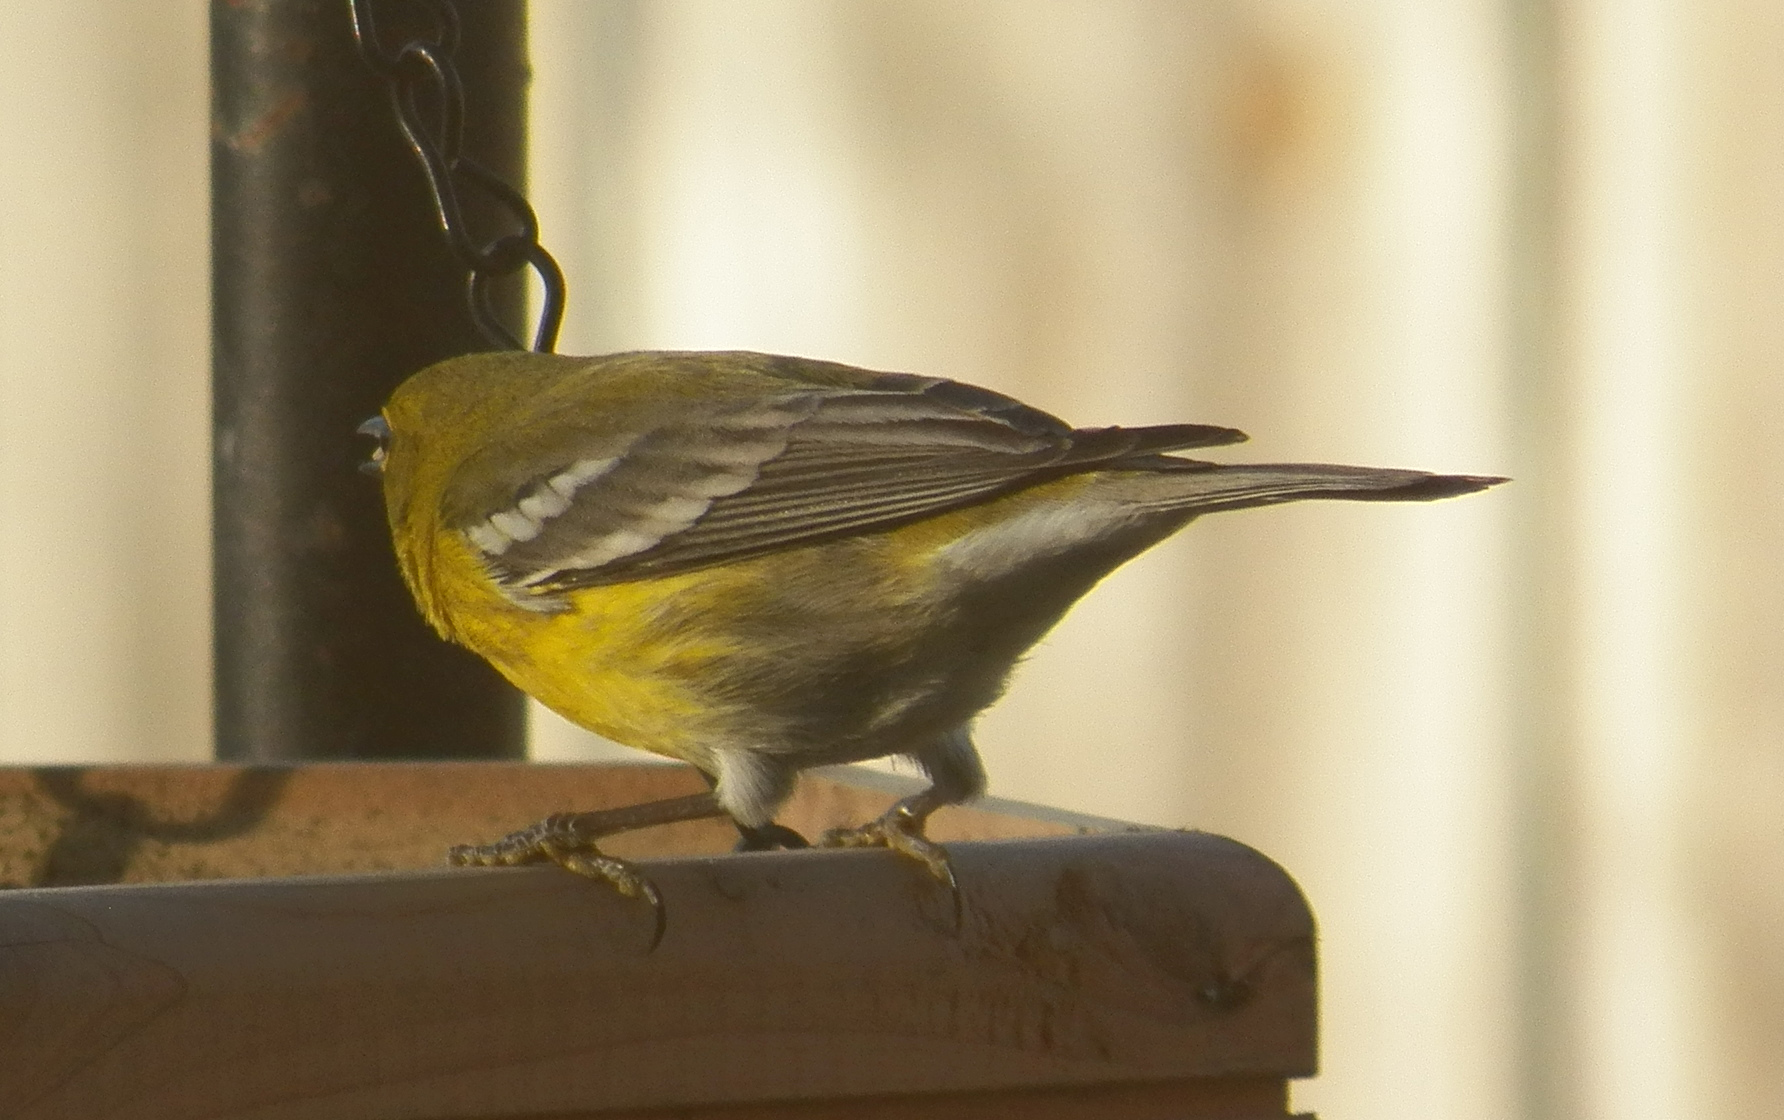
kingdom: Animalia
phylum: Chordata
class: Aves
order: Passeriformes
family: Parulidae
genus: Setophaga
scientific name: Setophaga pinus
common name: Pine warbler
